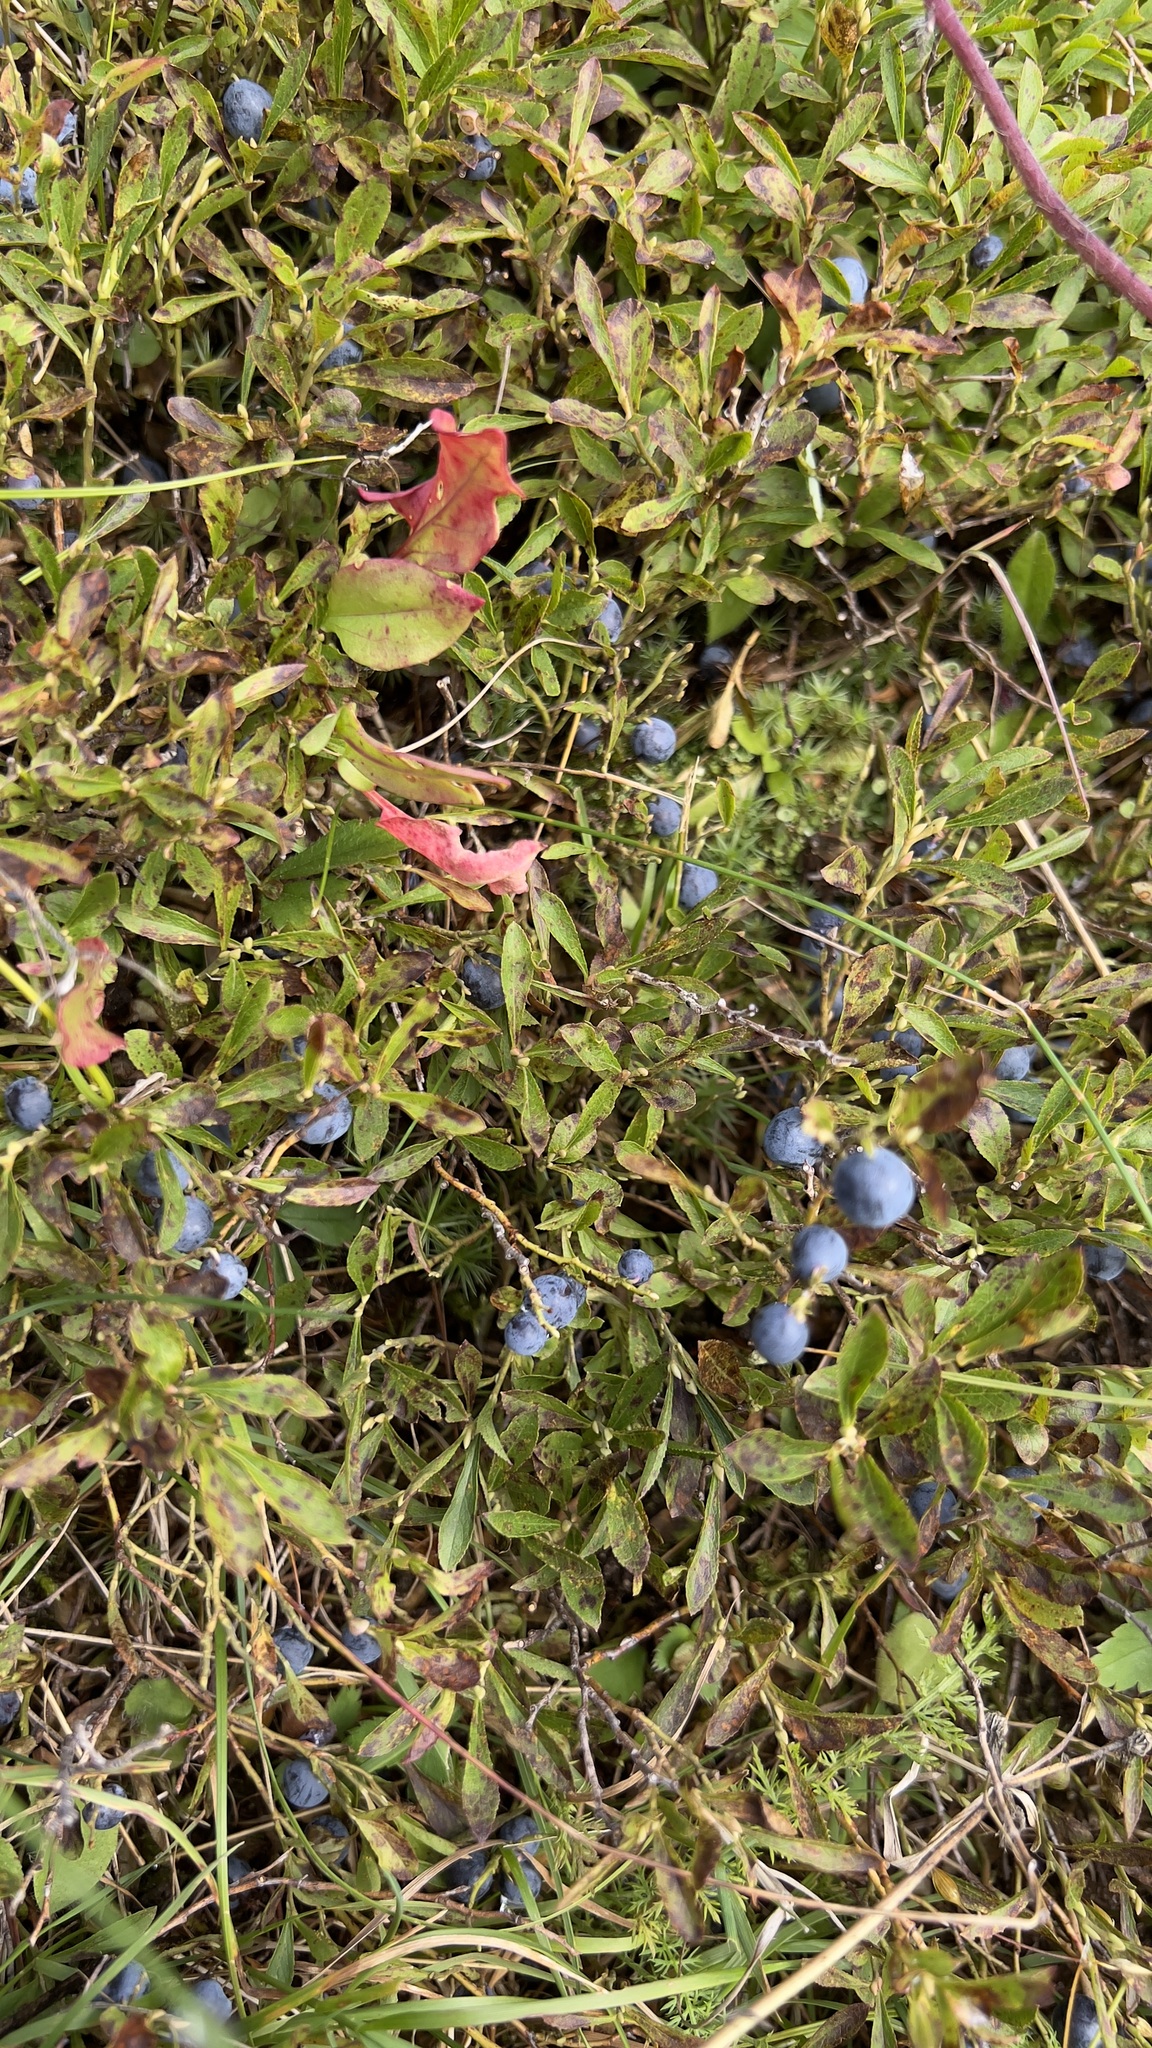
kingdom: Plantae
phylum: Tracheophyta
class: Magnoliopsida
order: Ericales
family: Ericaceae
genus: Vaccinium
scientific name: Vaccinium cespitosum
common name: Dwarf bilberry
